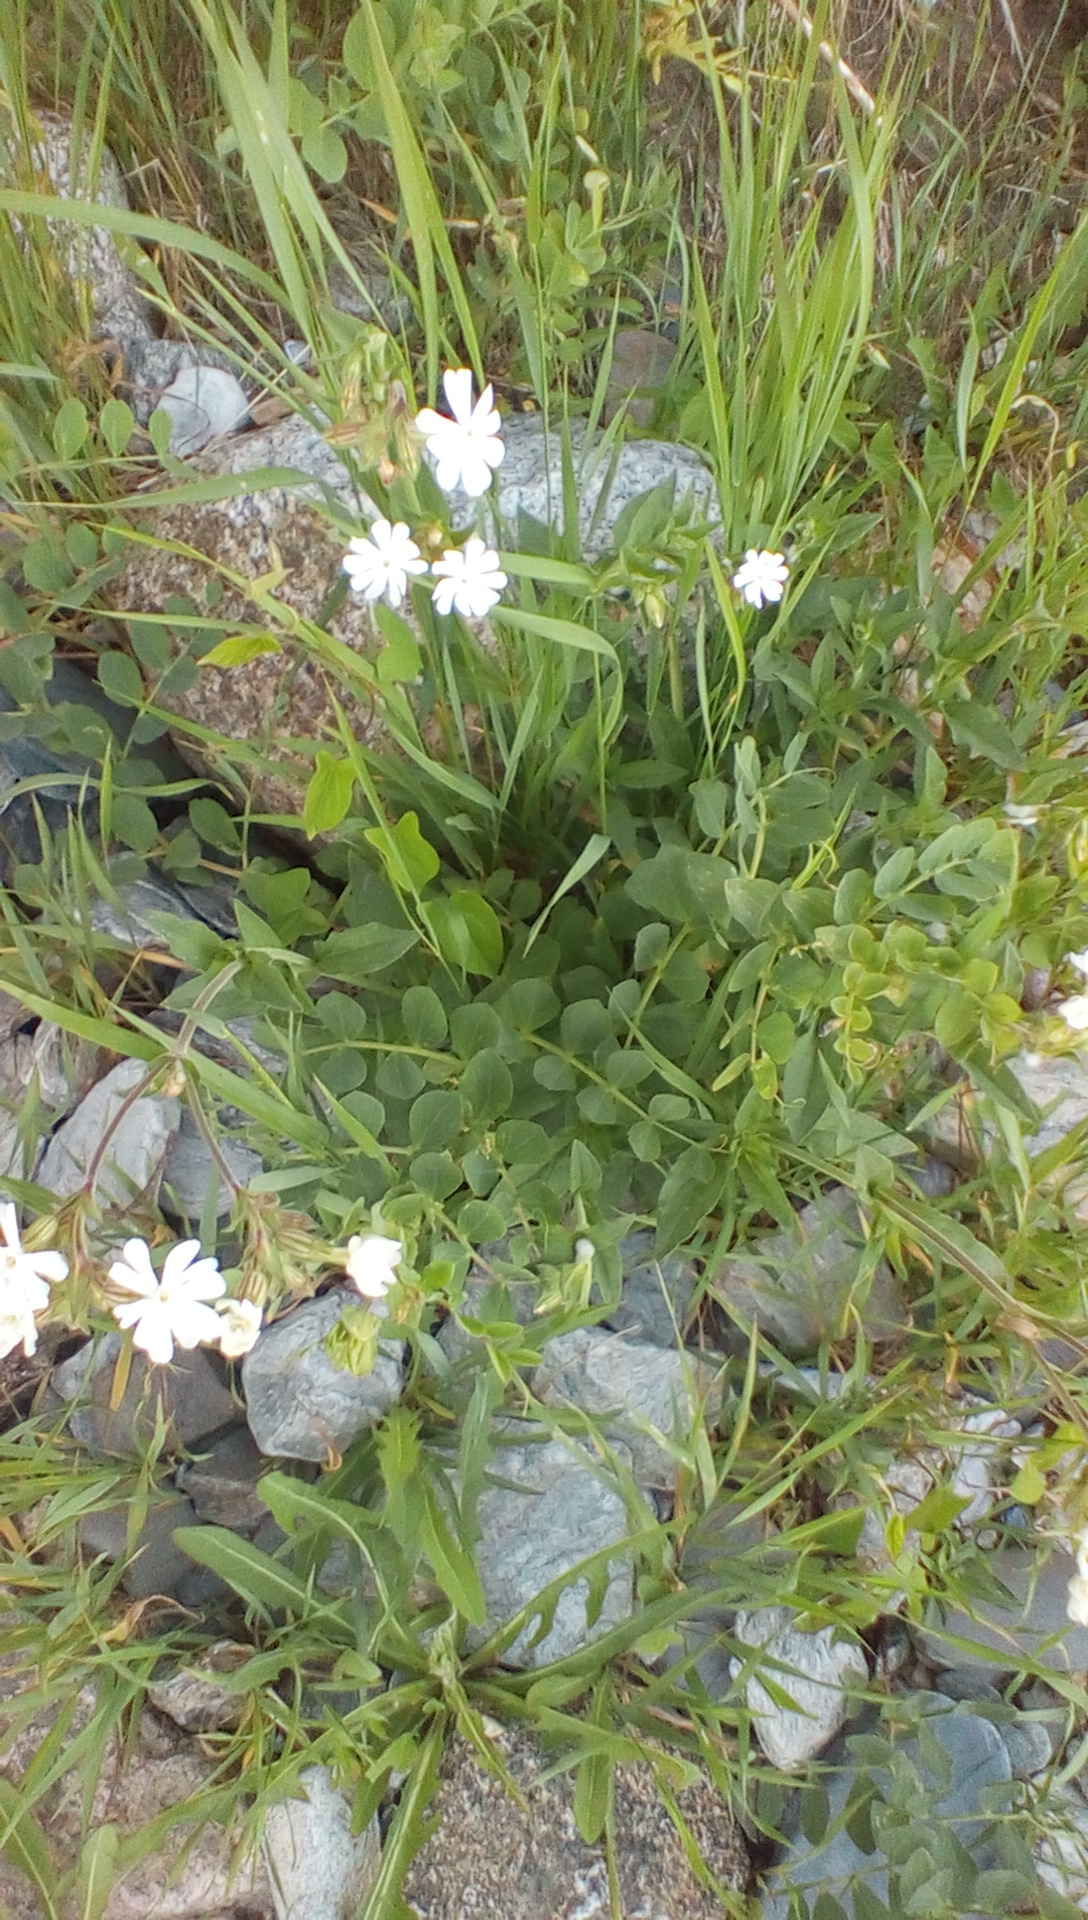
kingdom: Plantae
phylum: Tracheophyta
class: Magnoliopsida
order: Caryophyllales
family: Caryophyllaceae
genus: Silene
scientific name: Silene latifolia
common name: White campion
